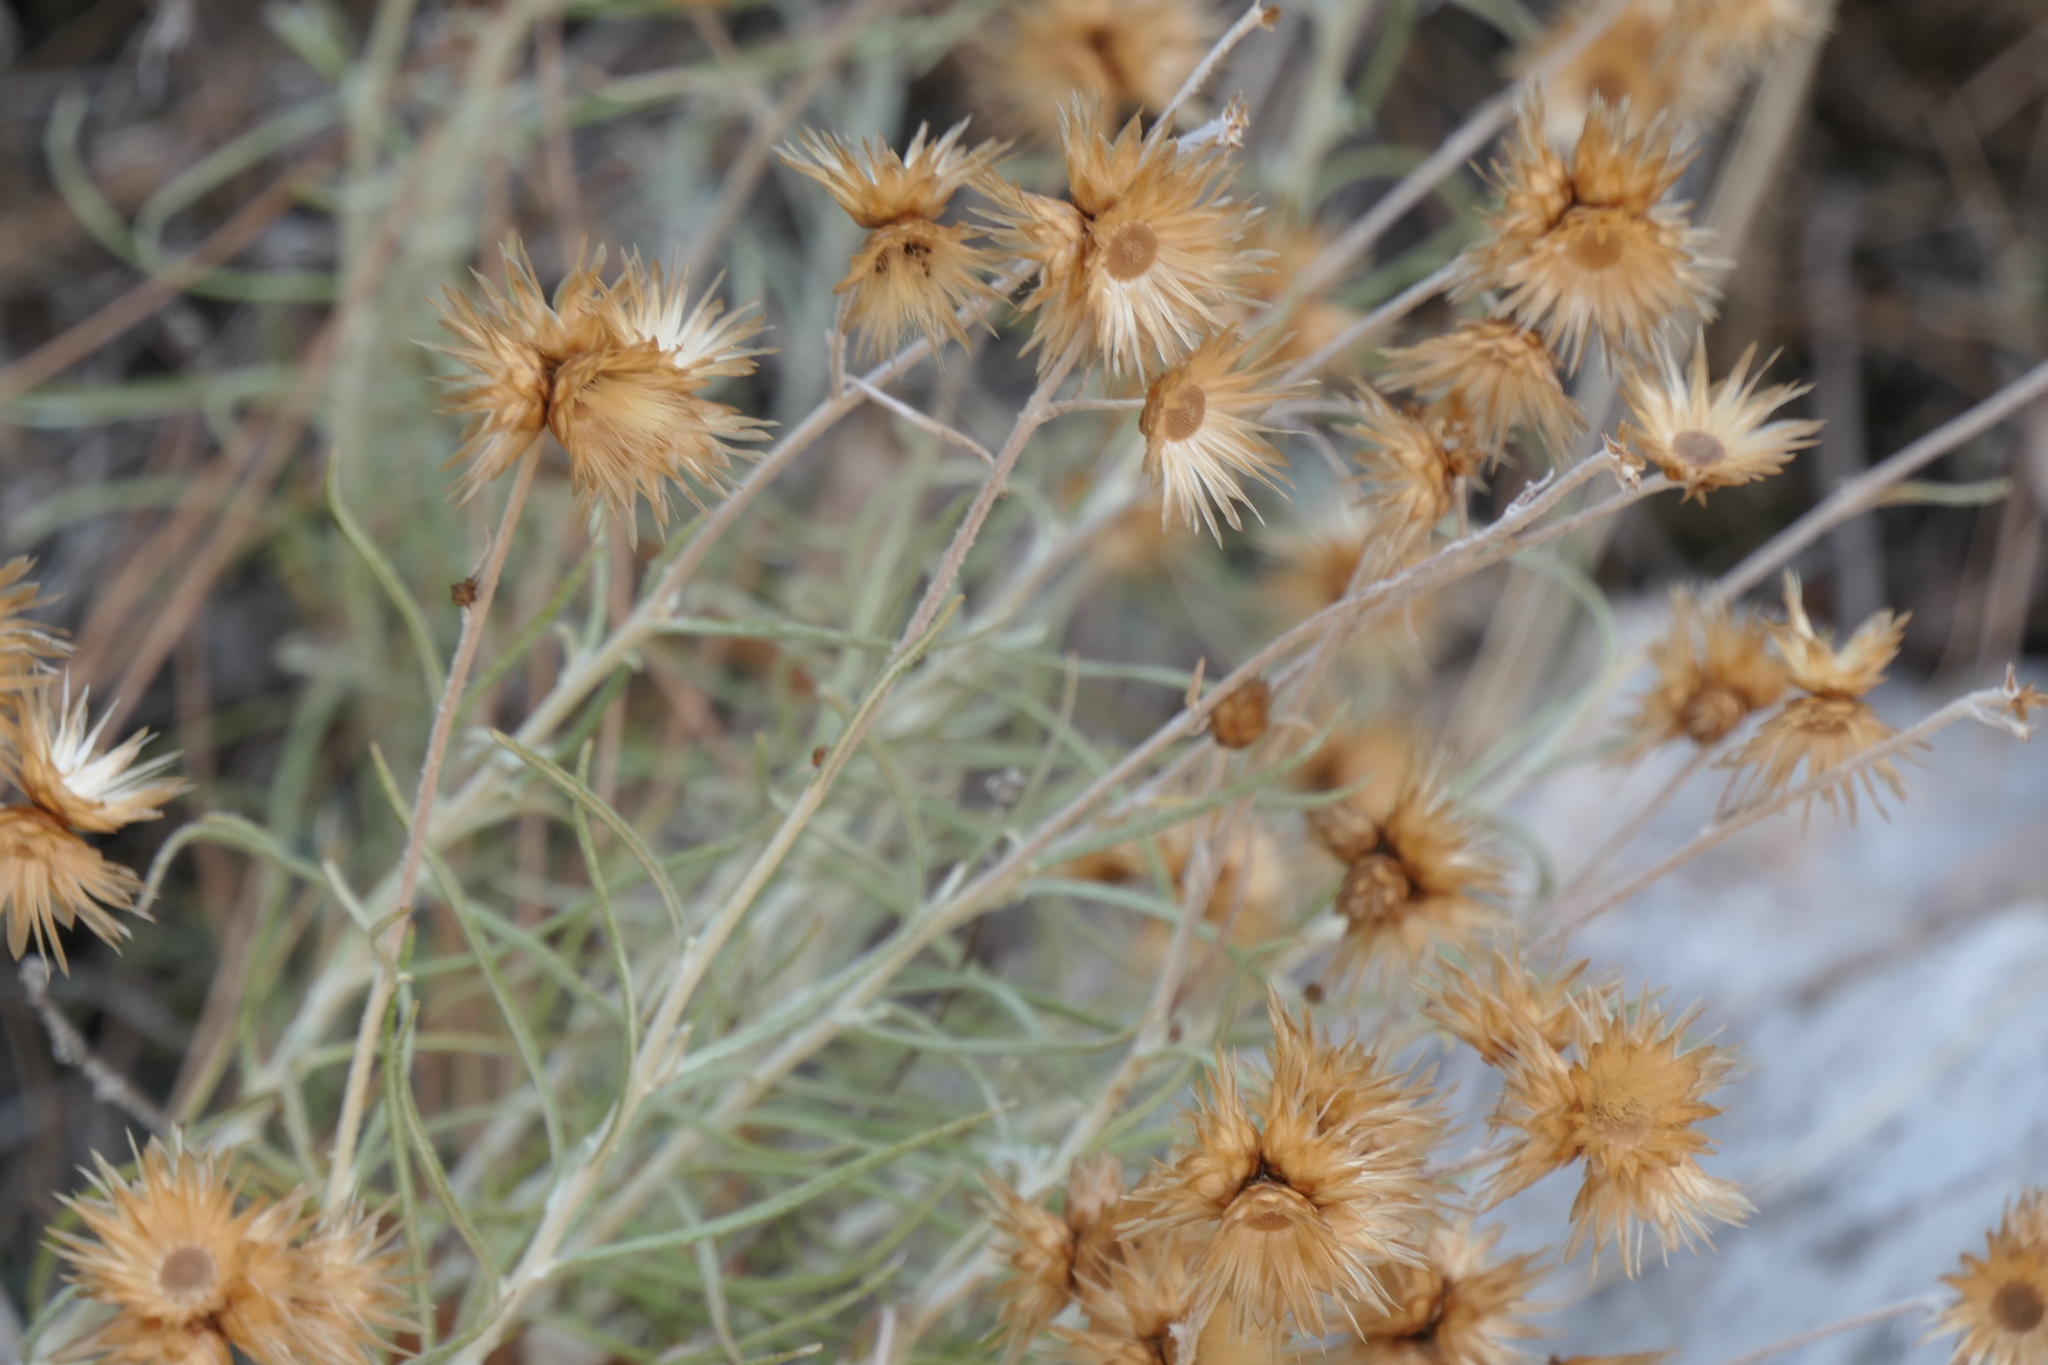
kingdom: Plantae
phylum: Tracheophyta
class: Magnoliopsida
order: Asterales
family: Asteraceae
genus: Phagnalon
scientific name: Phagnalon saxatile
